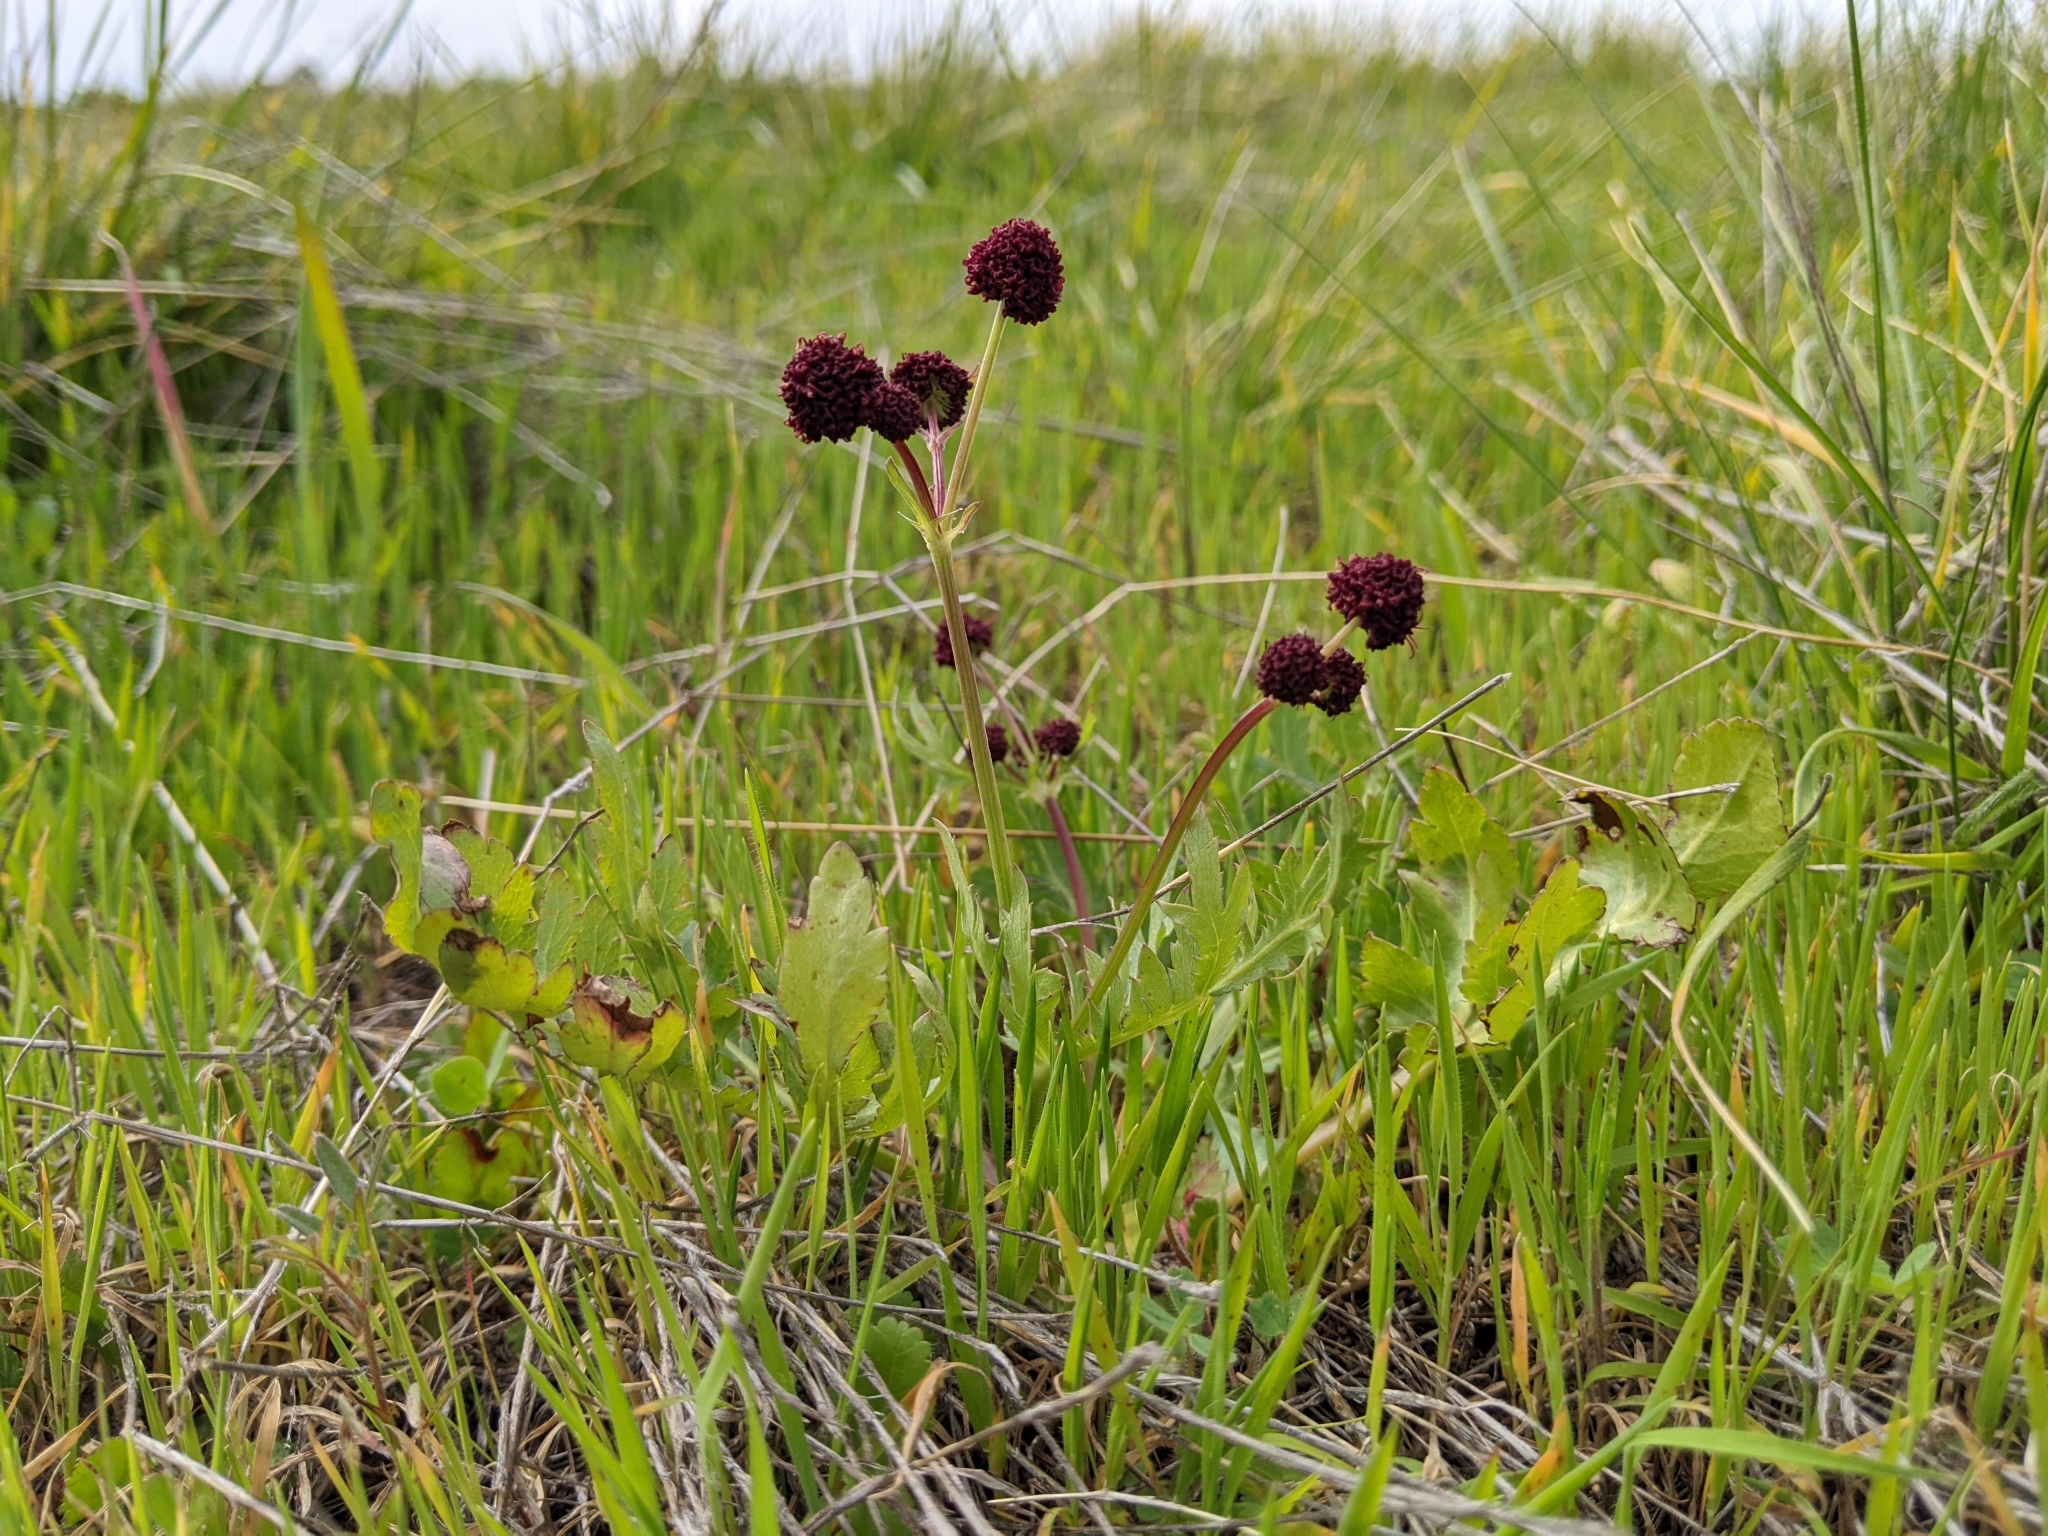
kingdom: Plantae
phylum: Tracheophyta
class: Magnoliopsida
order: Apiales
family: Apiaceae
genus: Sanicula
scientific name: Sanicula bipinnatifida
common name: Shoe-buttons
